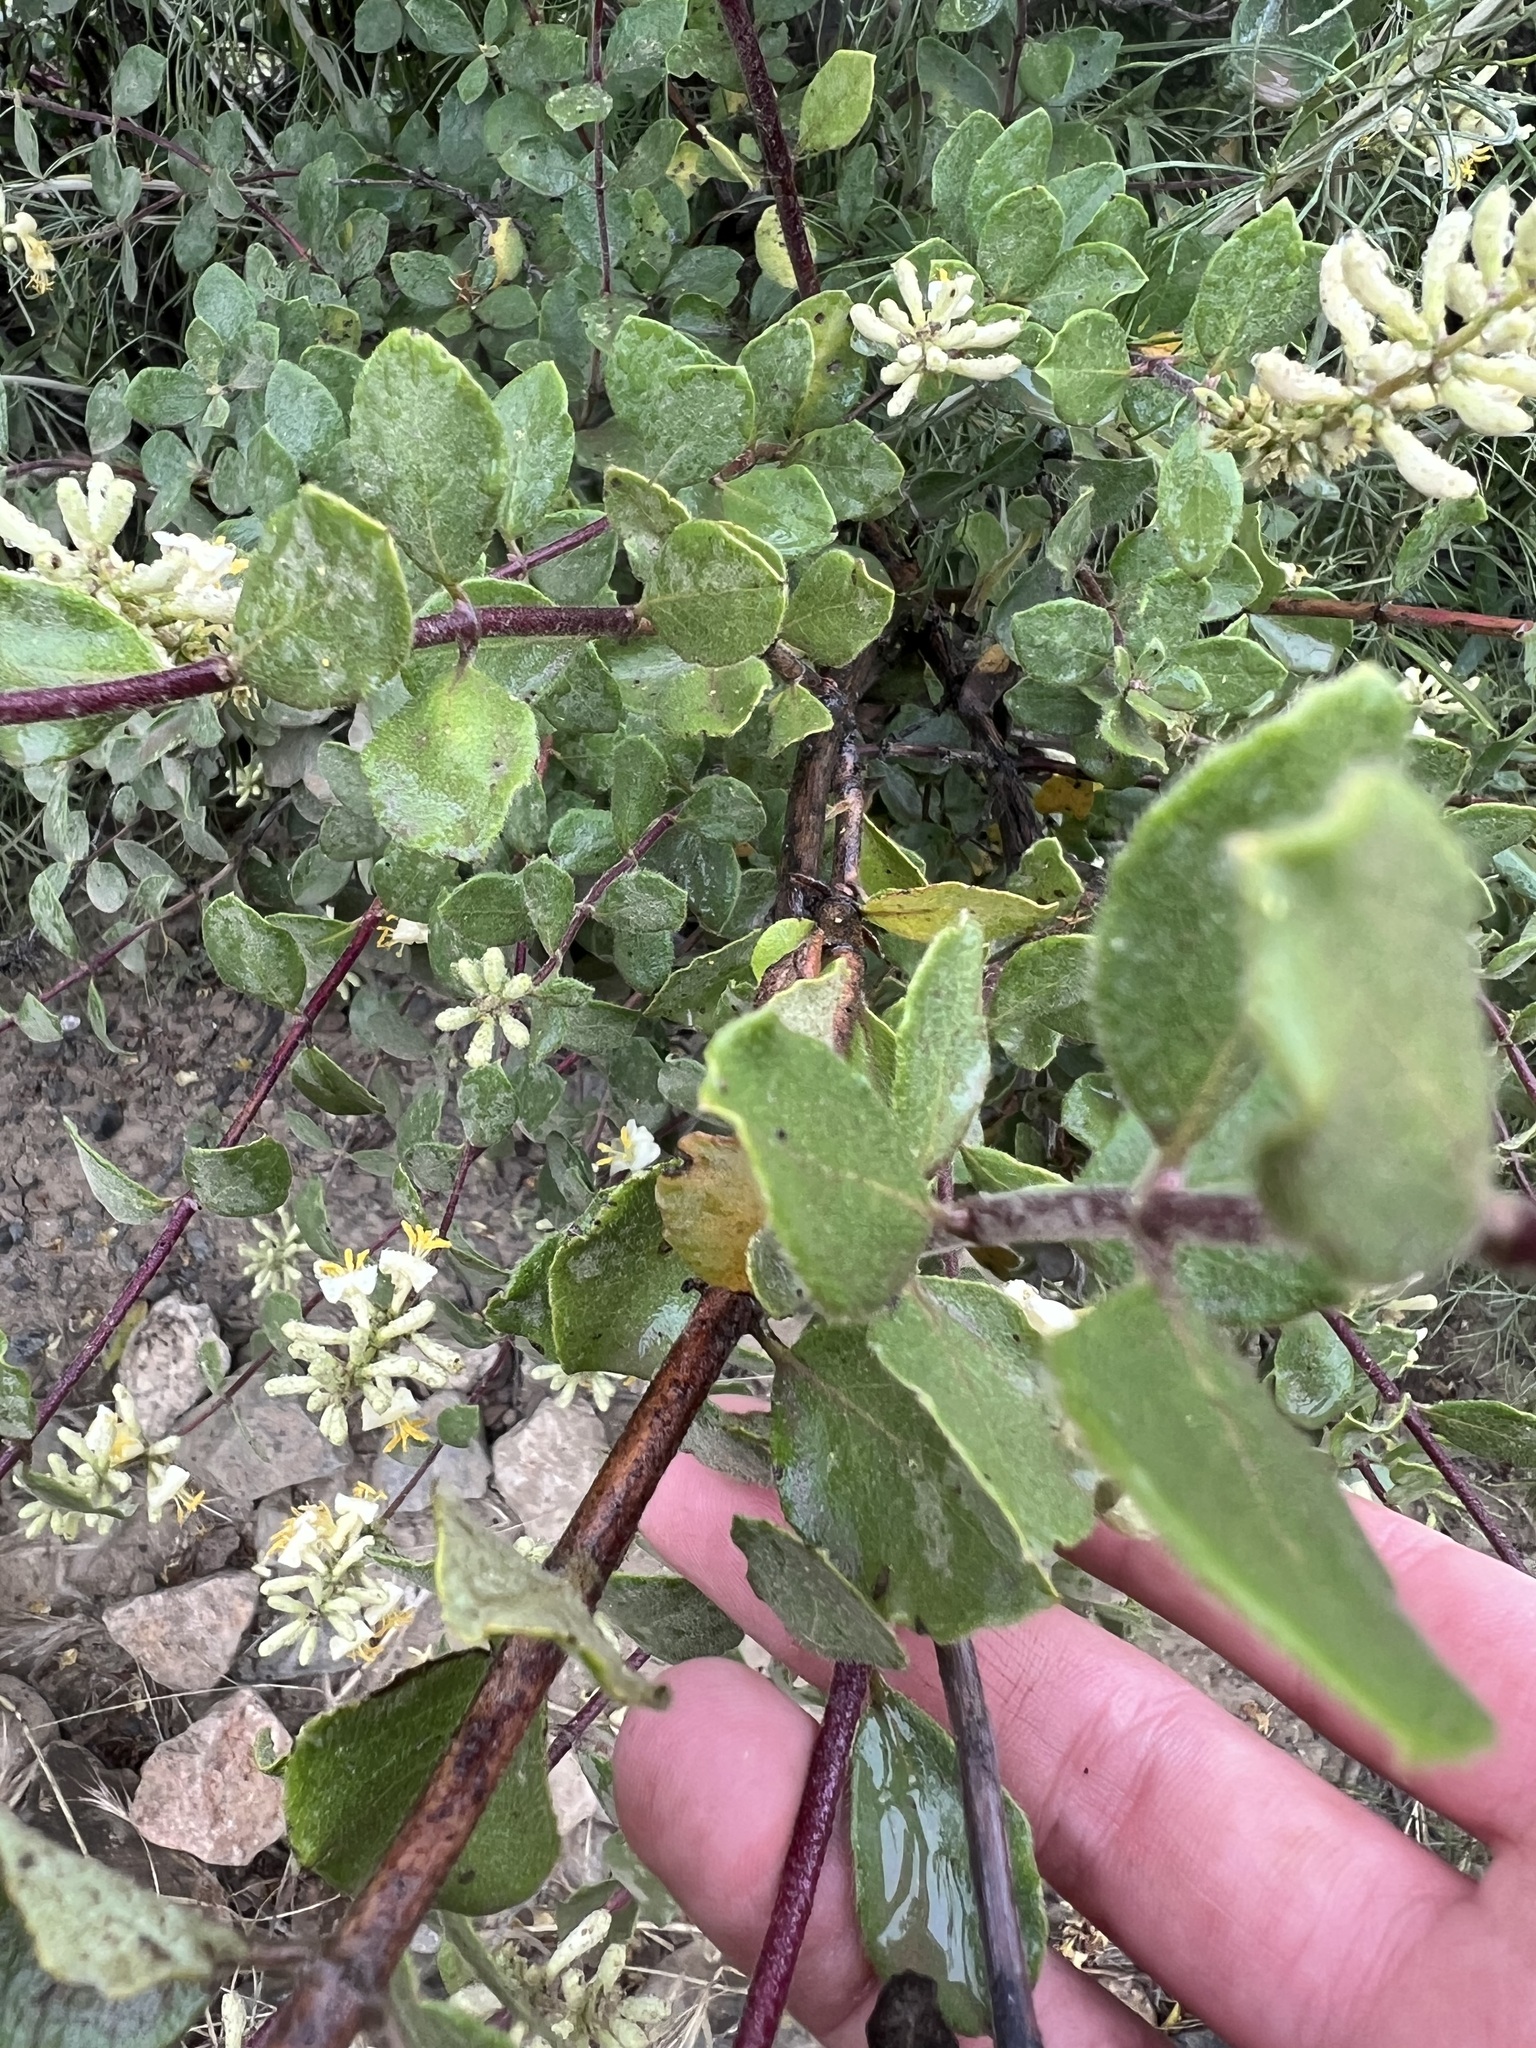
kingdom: Plantae
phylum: Tracheophyta
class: Magnoliopsida
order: Dipsacales
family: Caprifoliaceae
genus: Lonicera
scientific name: Lonicera subspicata
